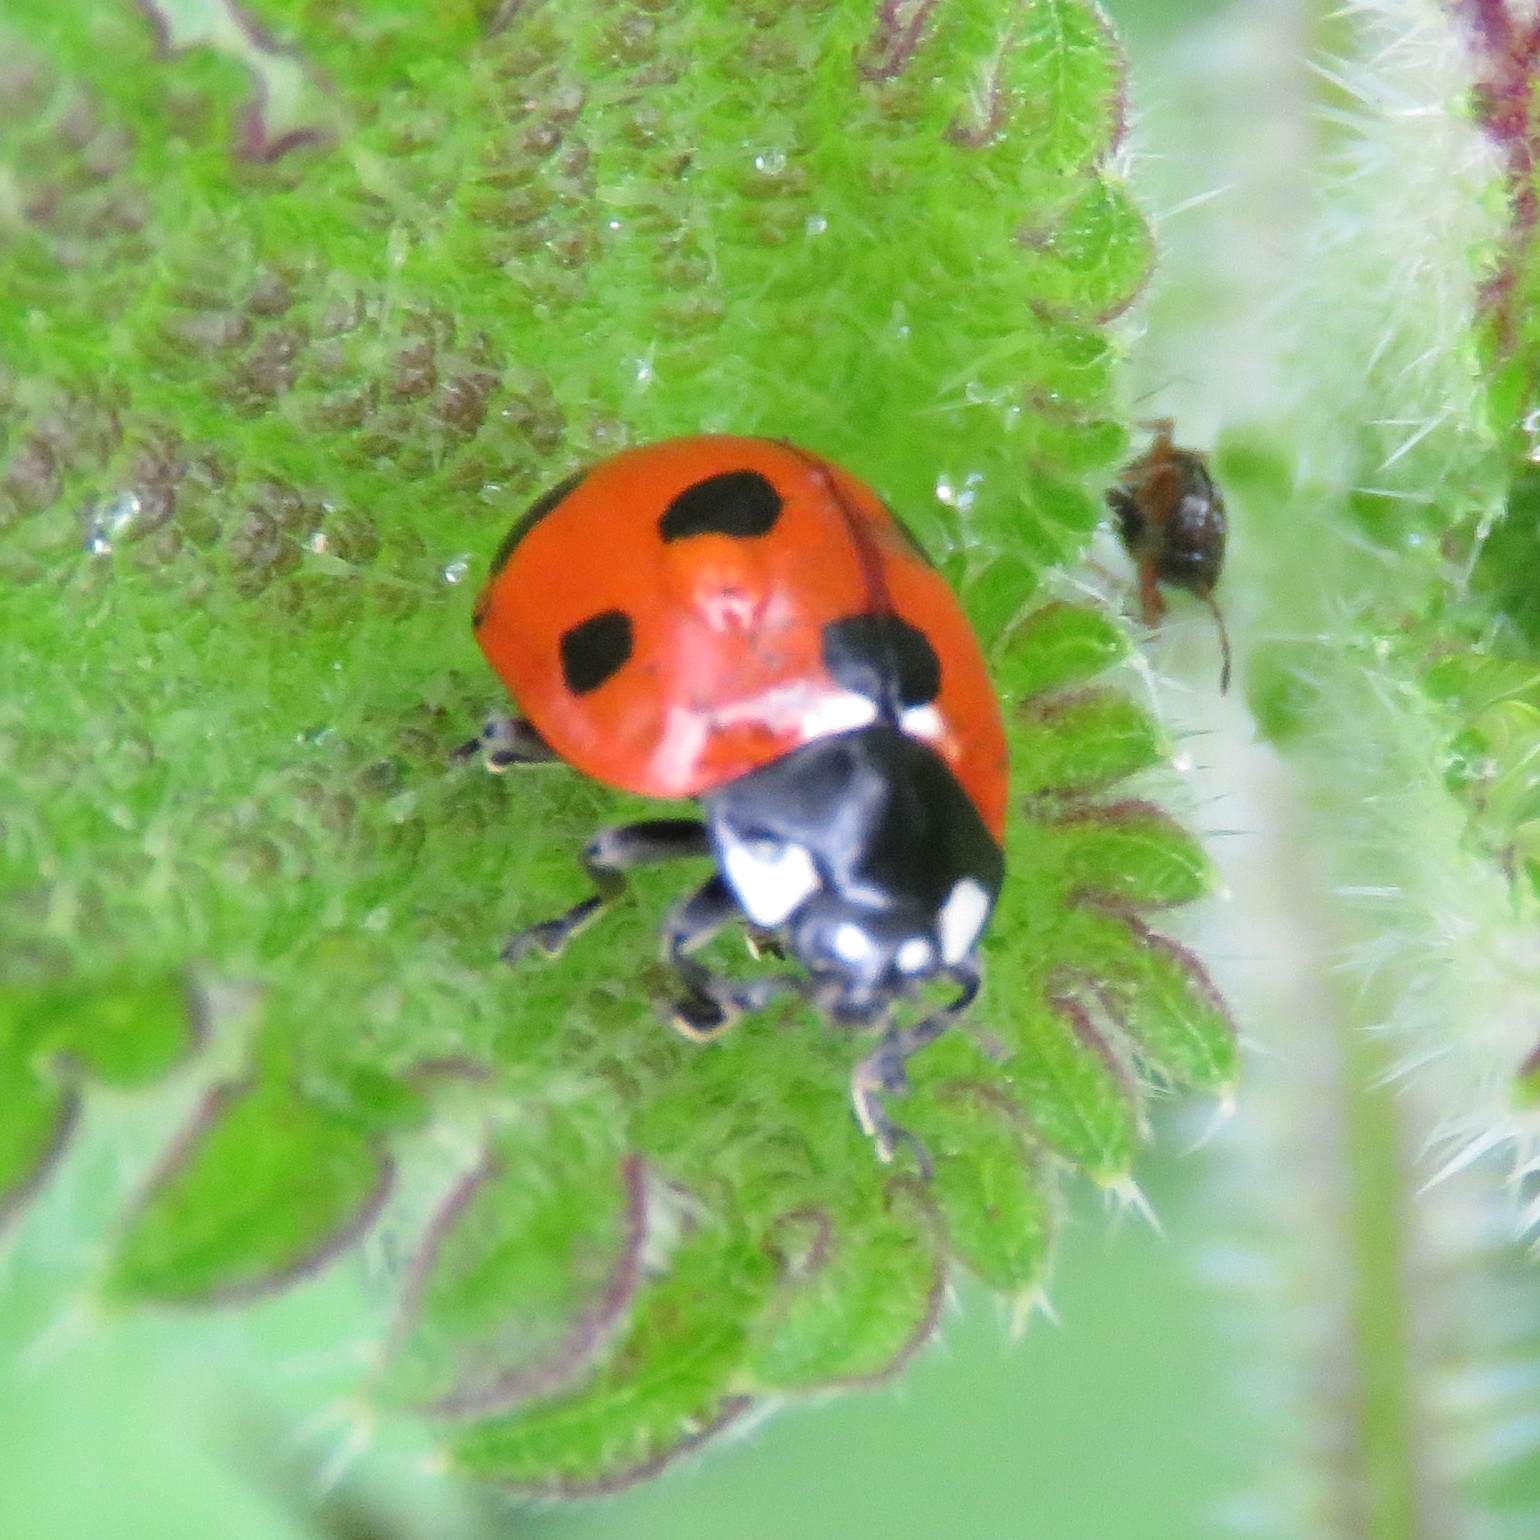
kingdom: Animalia
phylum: Arthropoda
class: Insecta
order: Coleoptera
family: Coccinellidae
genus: Coccinella
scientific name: Coccinella septempunctata
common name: Sevenspotted lady beetle
